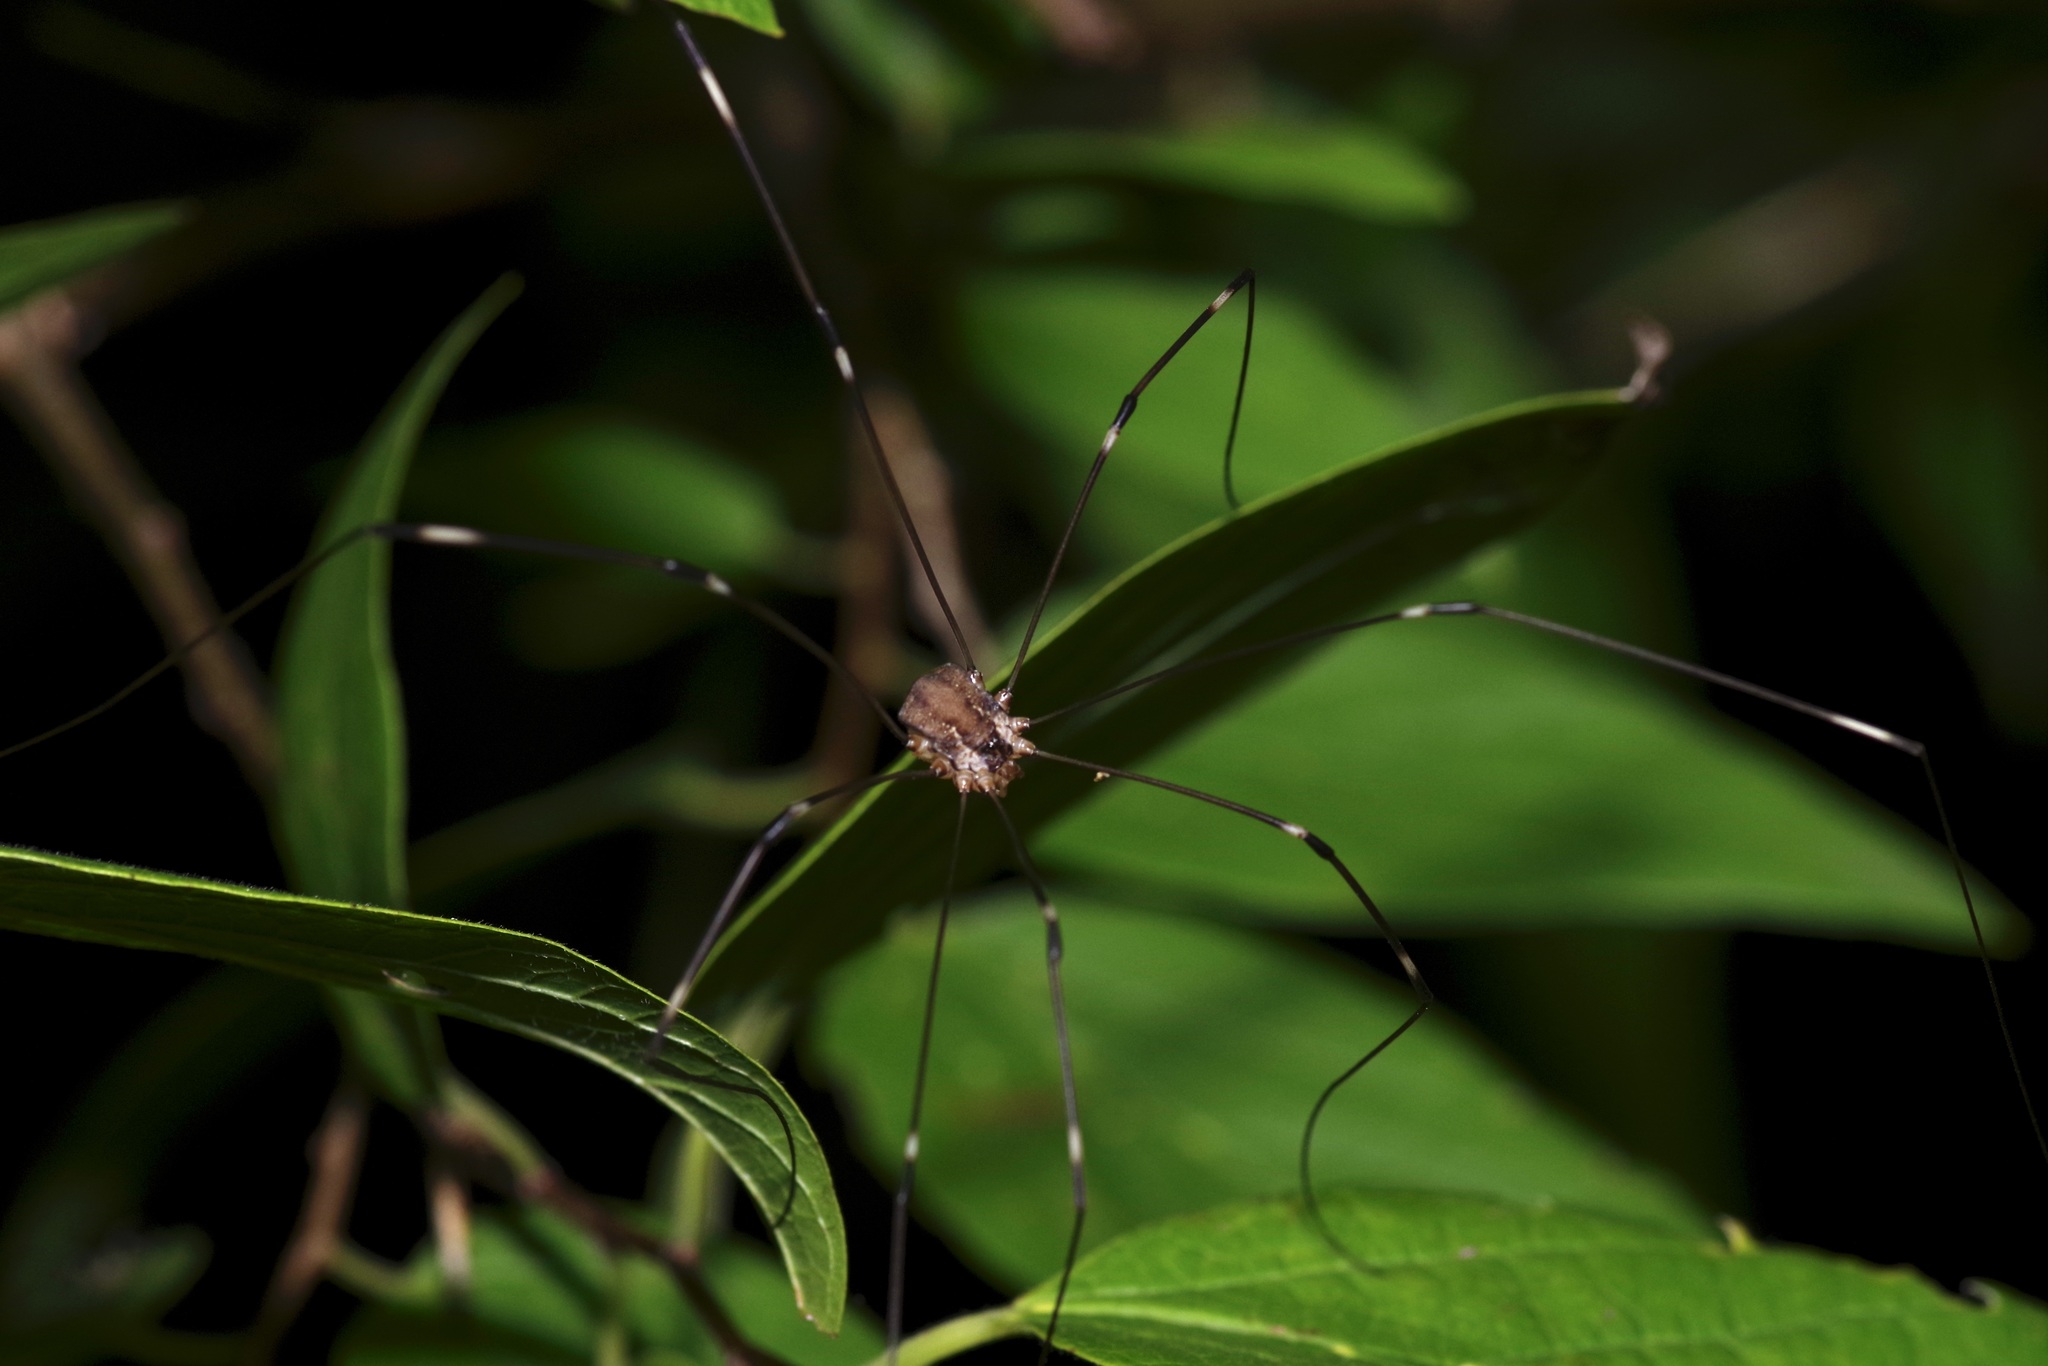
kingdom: Animalia
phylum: Arthropoda
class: Arachnida
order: Opiliones
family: Sclerosomatidae
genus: Leiobunum
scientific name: Leiobunum townsendi
